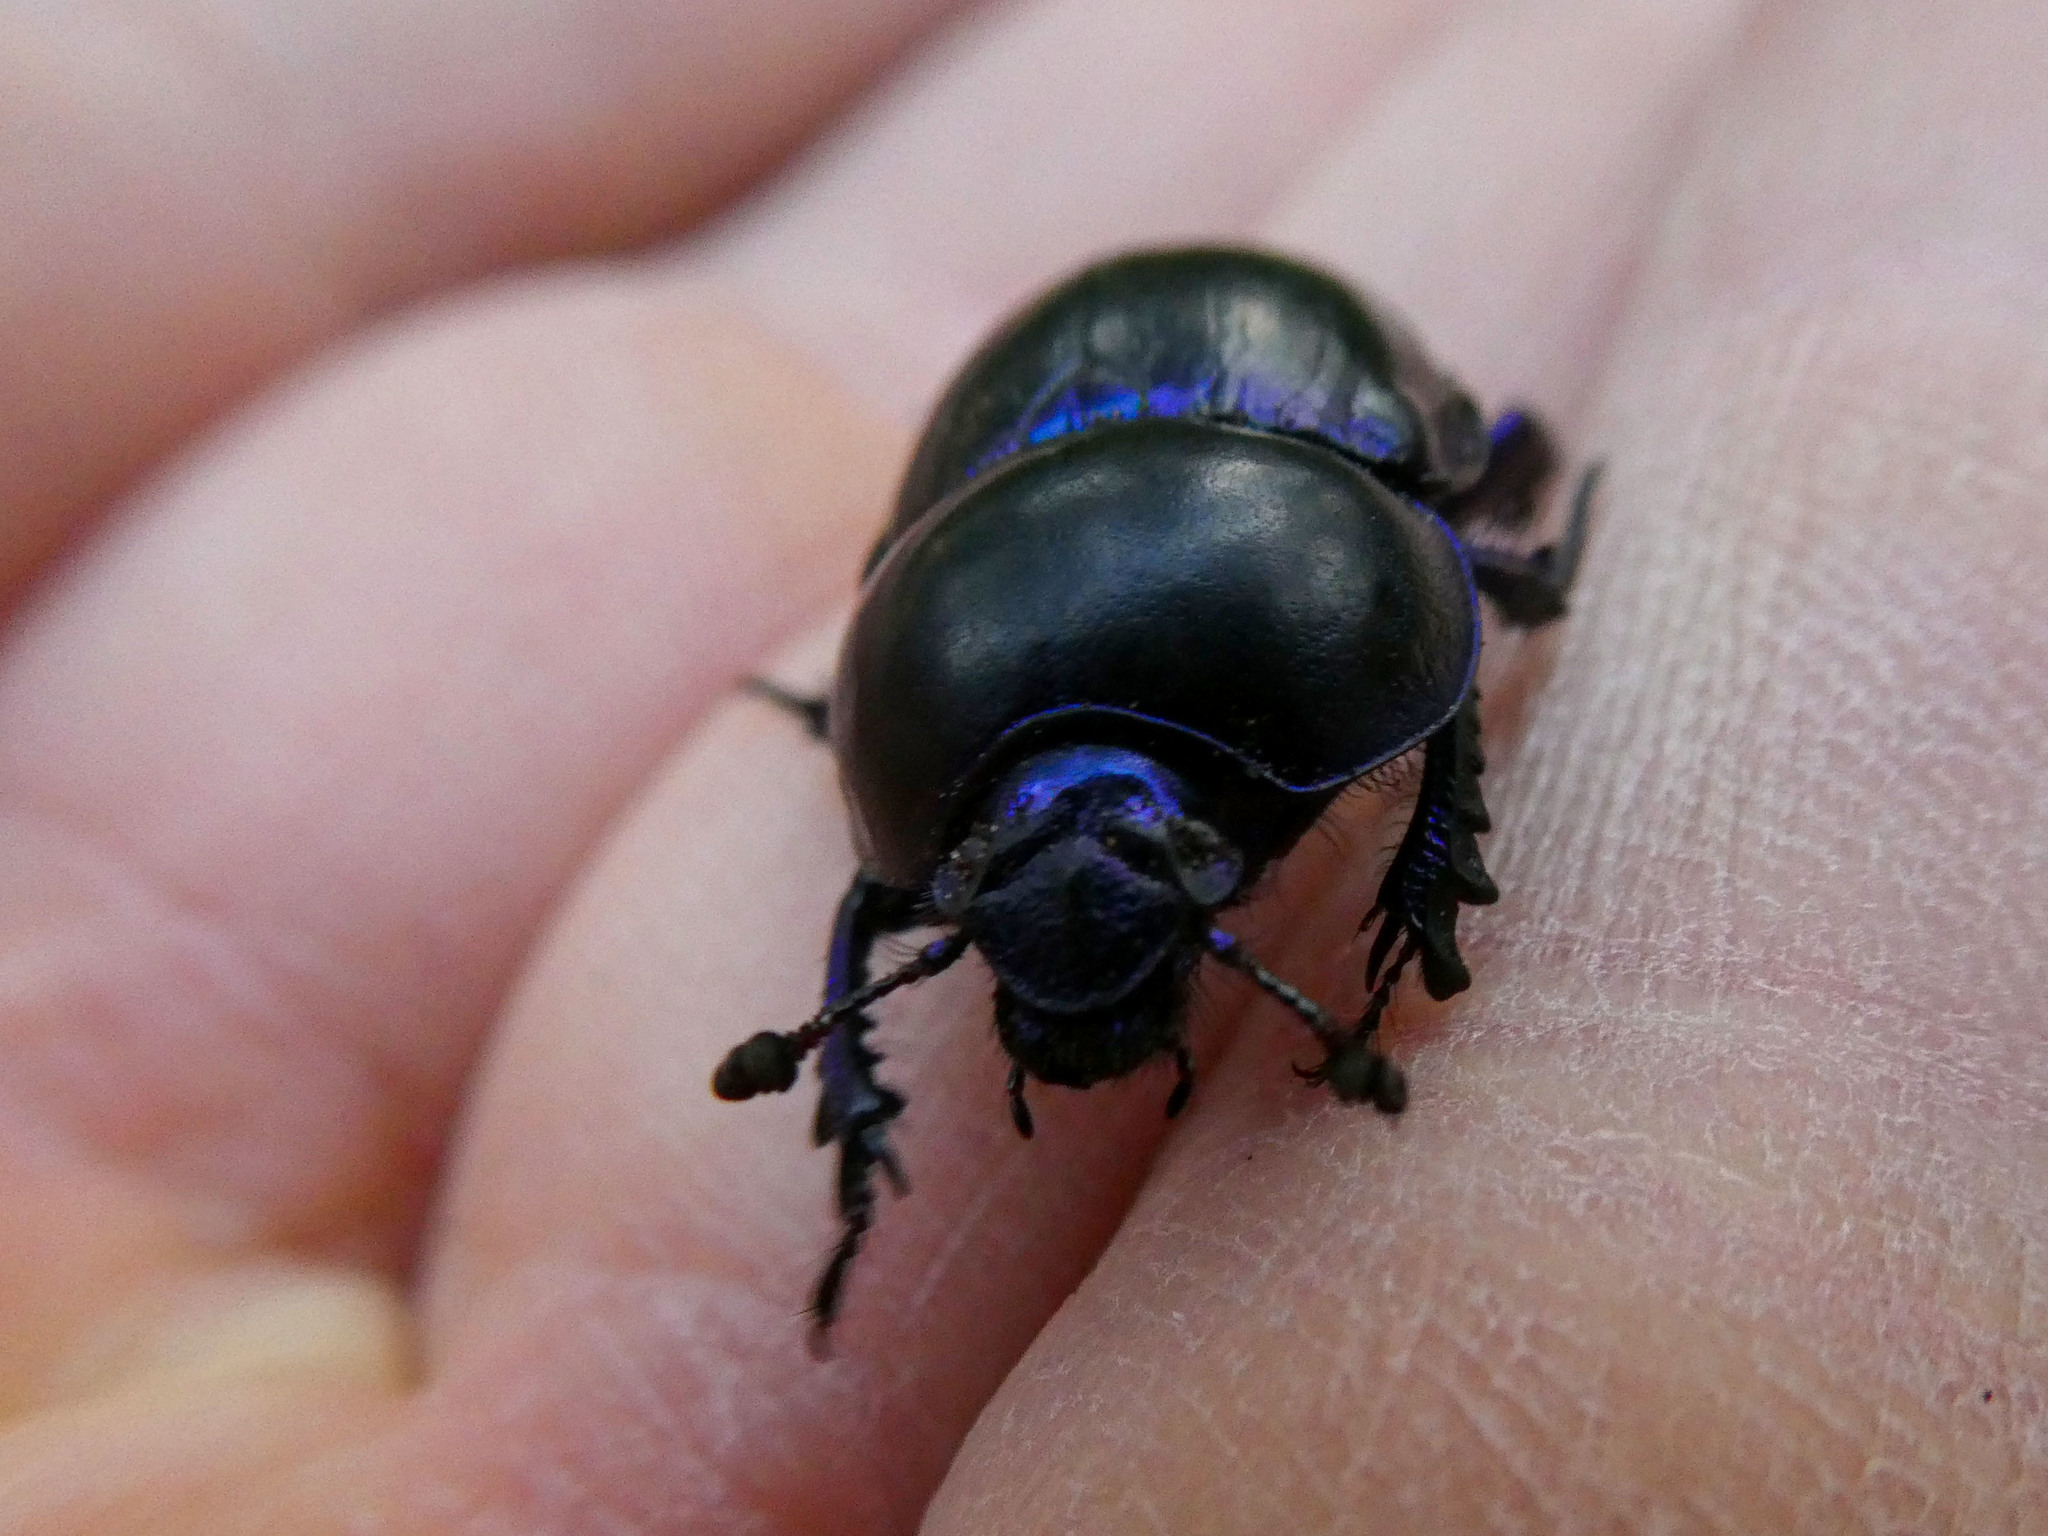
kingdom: Animalia
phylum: Arthropoda
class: Insecta
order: Coleoptera
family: Geotrupidae
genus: Trypocopris
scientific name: Trypocopris vernalis
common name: Spring dumbledor
